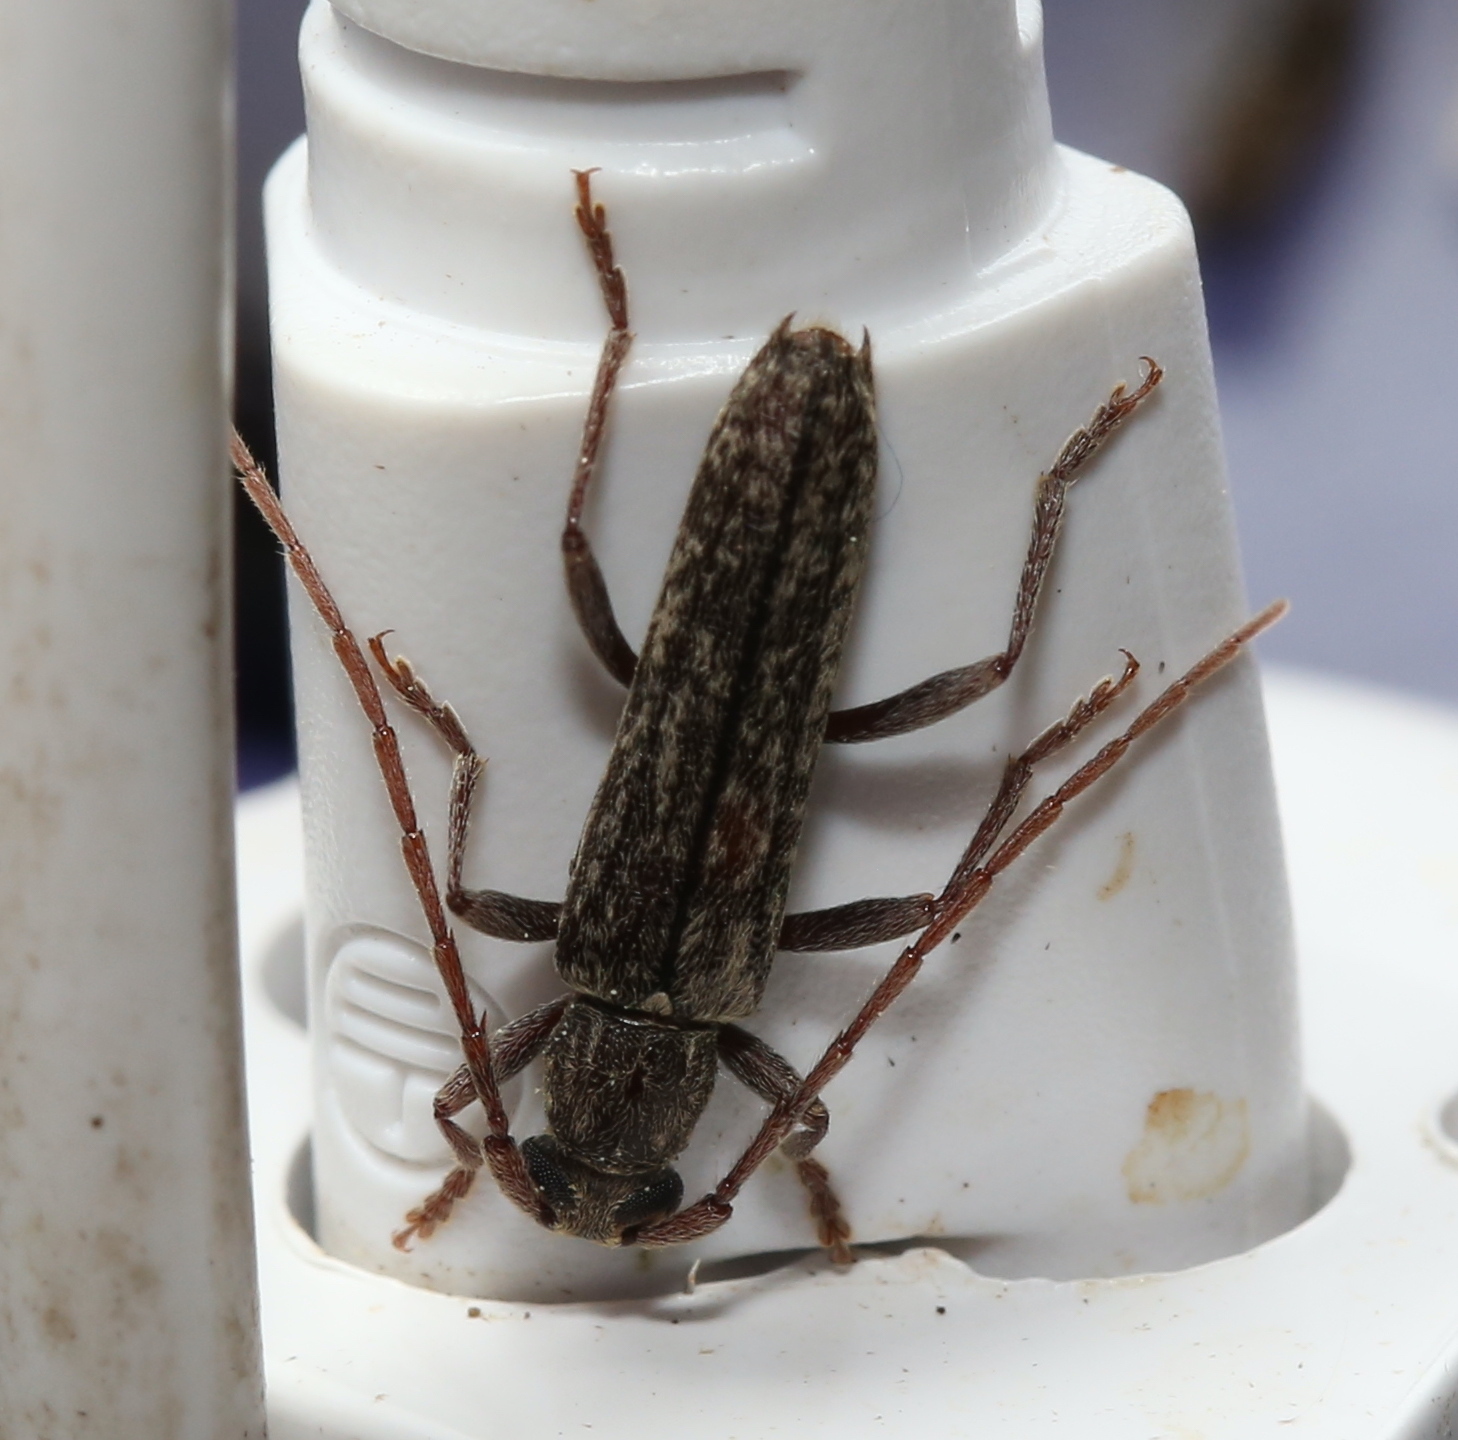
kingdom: Animalia
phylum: Arthropoda
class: Insecta
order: Coleoptera
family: Cerambycidae
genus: Anelaphus
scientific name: Anelaphus villosus
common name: Twig pruner
